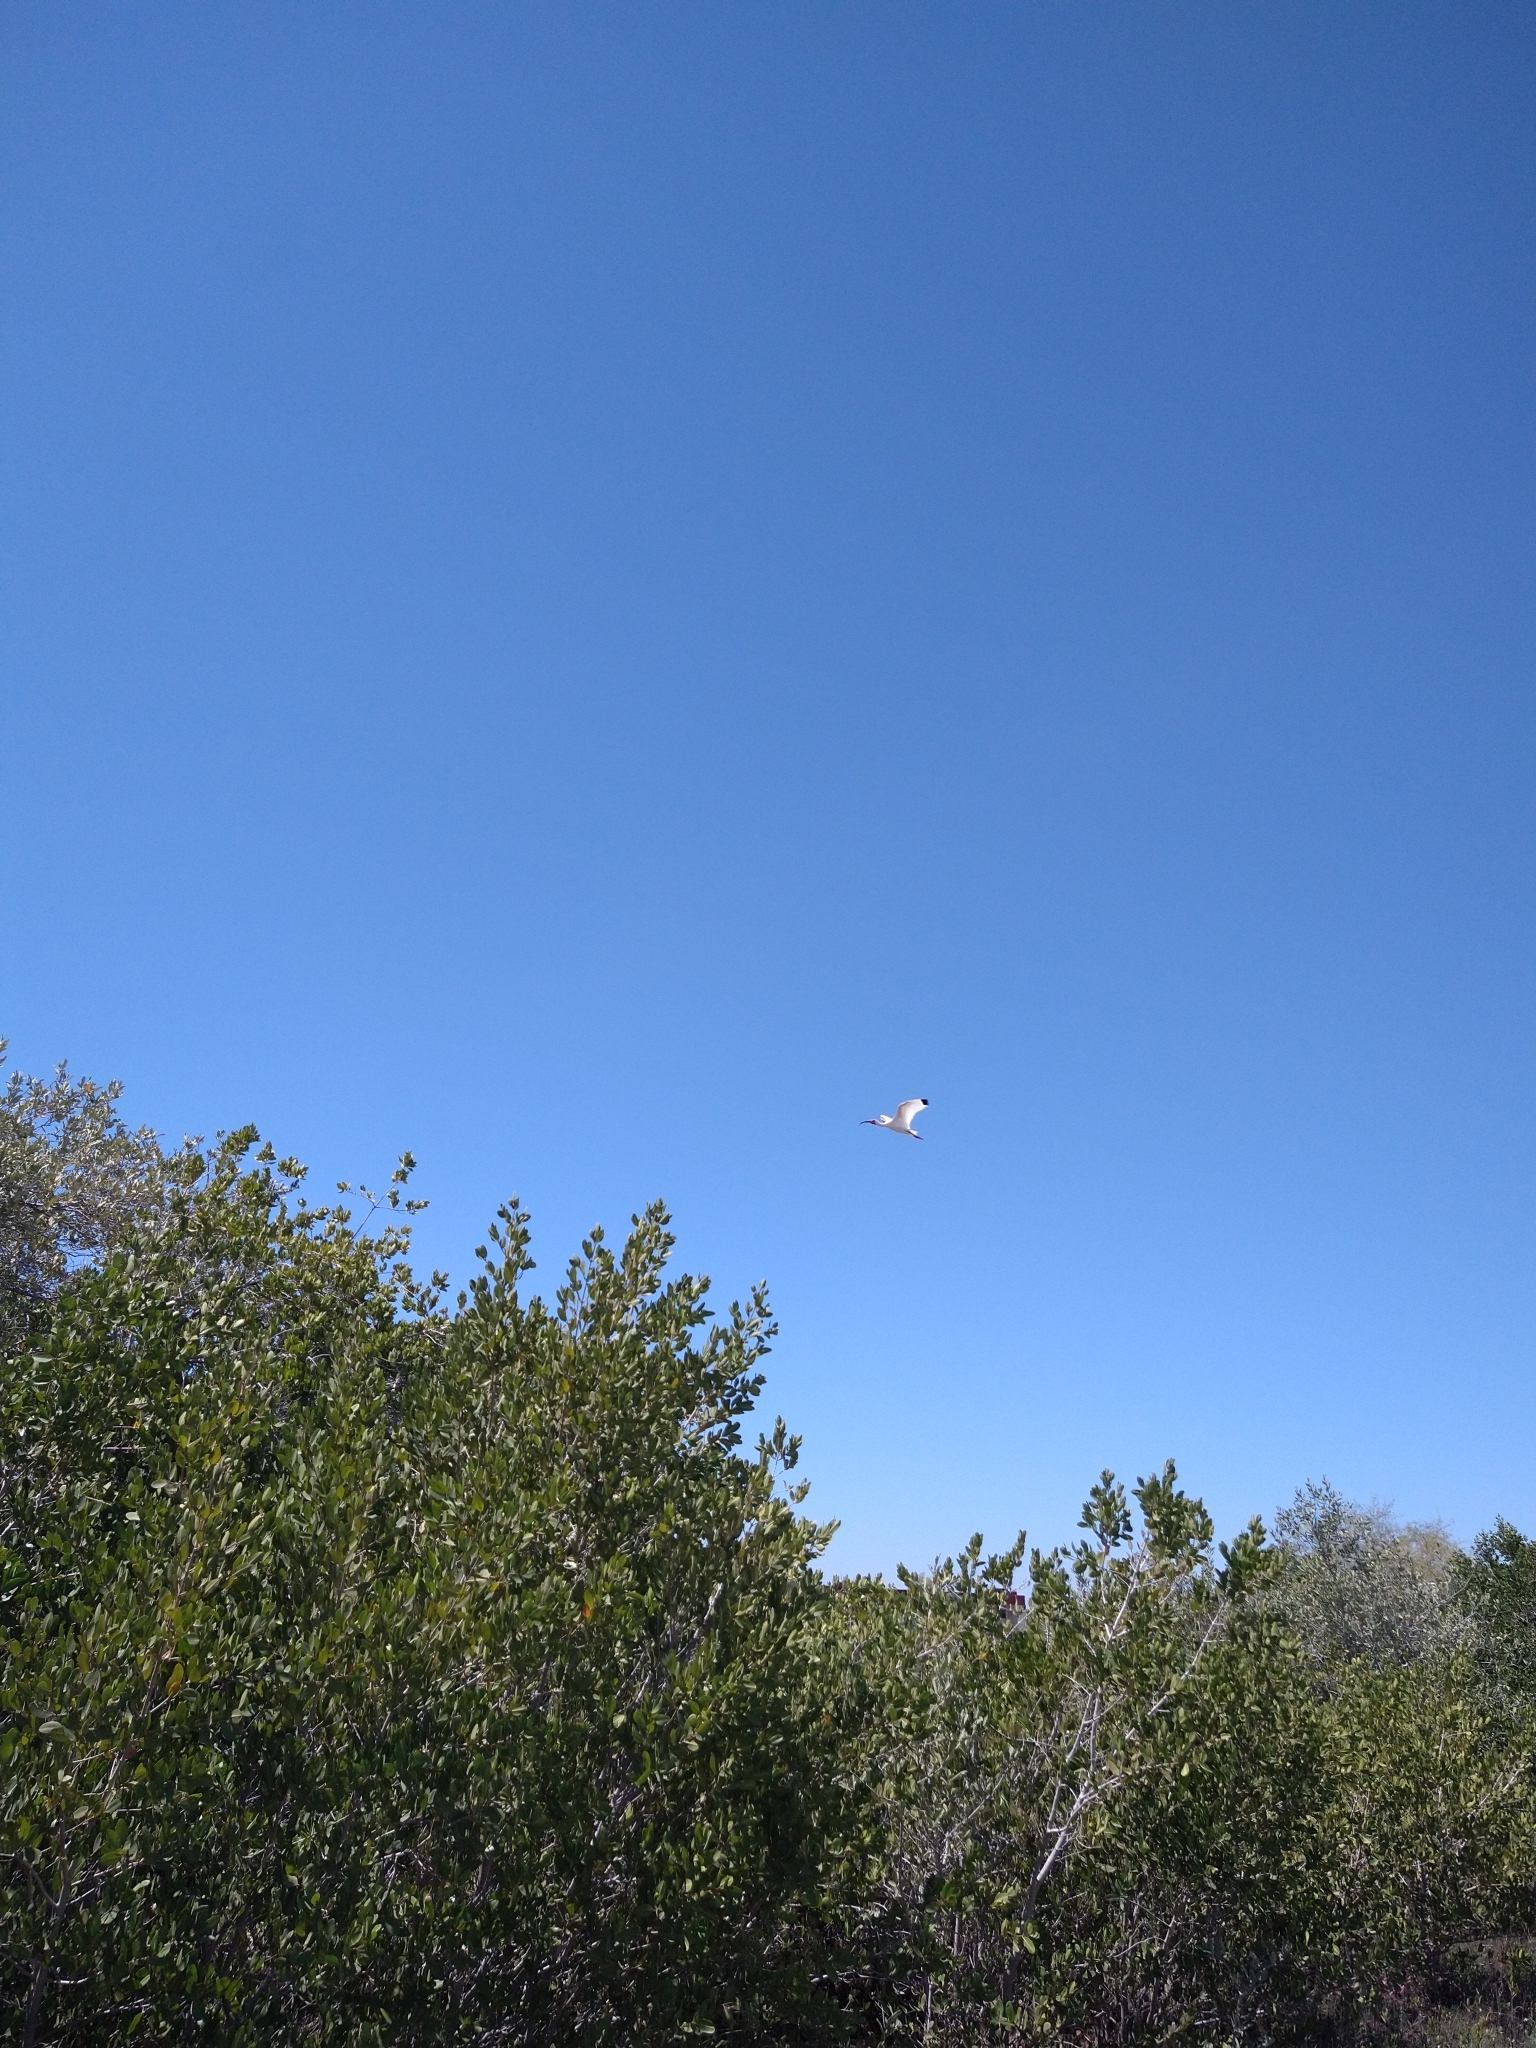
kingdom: Animalia
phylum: Chordata
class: Aves
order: Pelecaniformes
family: Threskiornithidae
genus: Eudocimus
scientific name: Eudocimus albus
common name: White ibis
